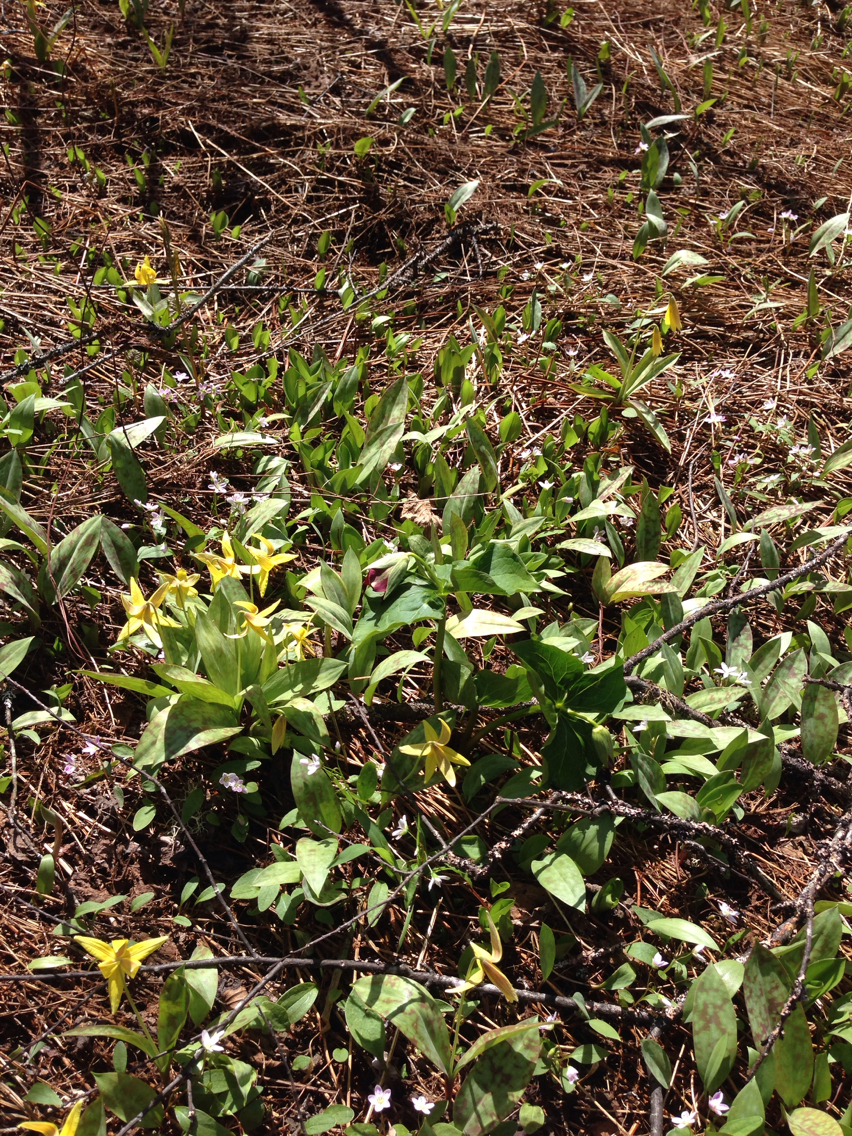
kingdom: Plantae
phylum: Tracheophyta
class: Liliopsida
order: Liliales
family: Melanthiaceae
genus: Trillium
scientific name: Trillium erectum
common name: Purple trillium
